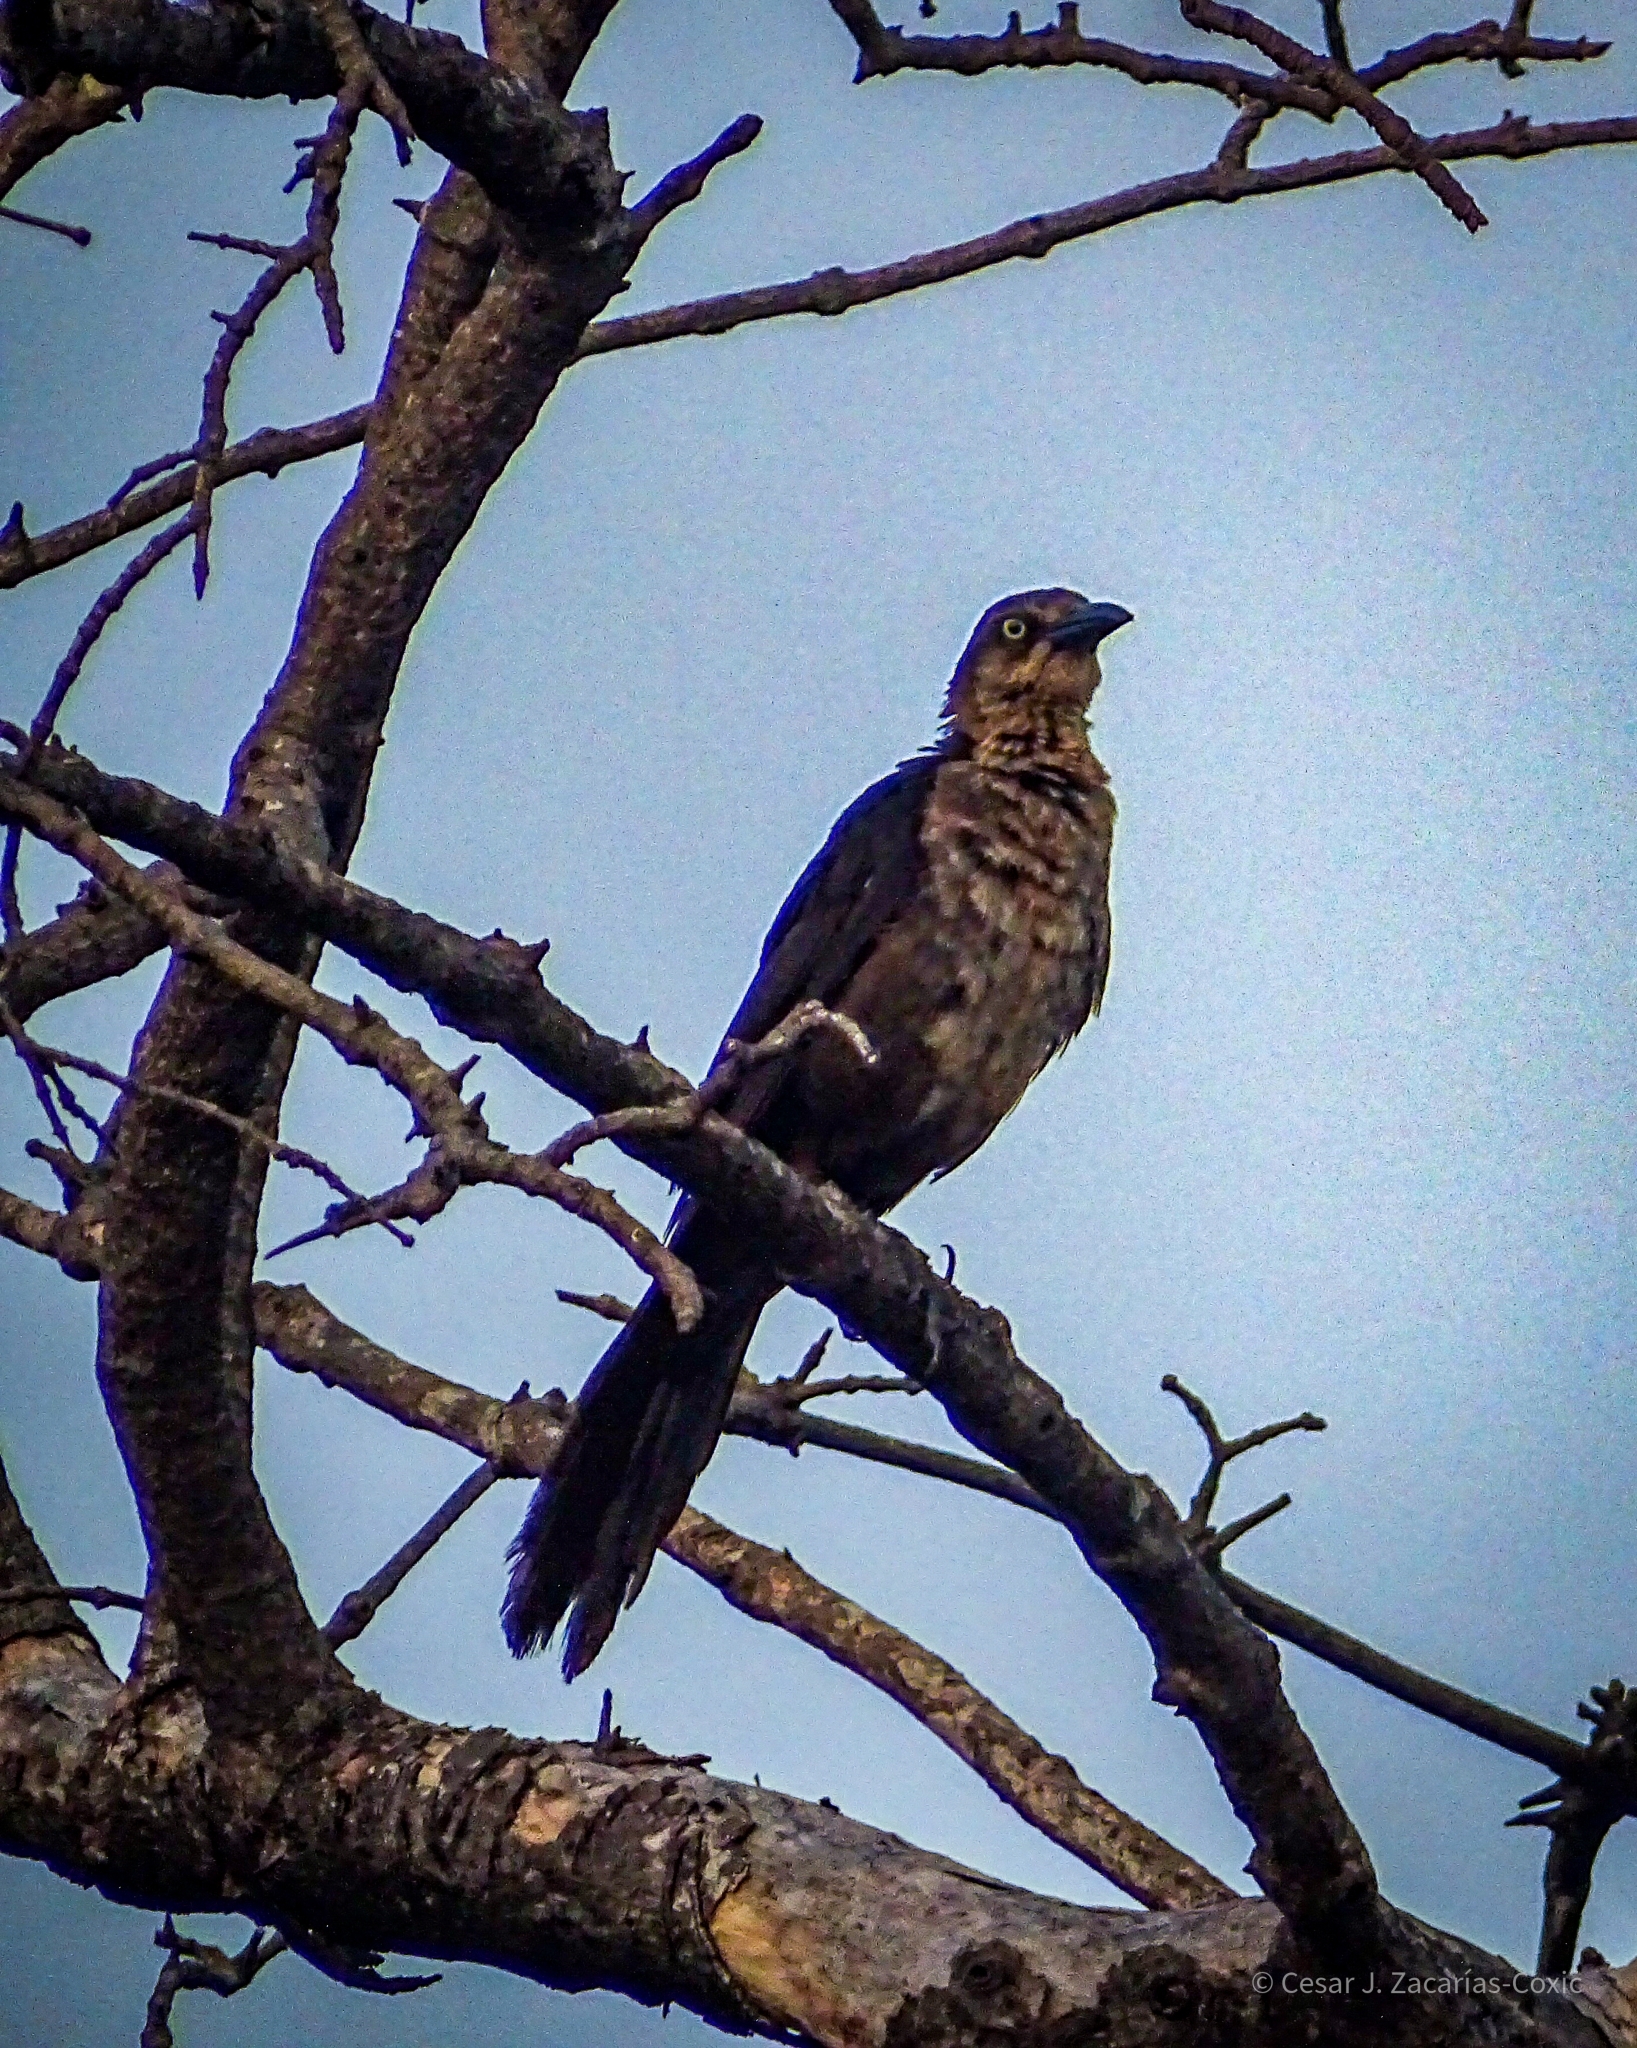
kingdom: Animalia
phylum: Chordata
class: Aves
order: Passeriformes
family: Icteridae
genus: Quiscalus
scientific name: Quiscalus mexicanus
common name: Great-tailed grackle
